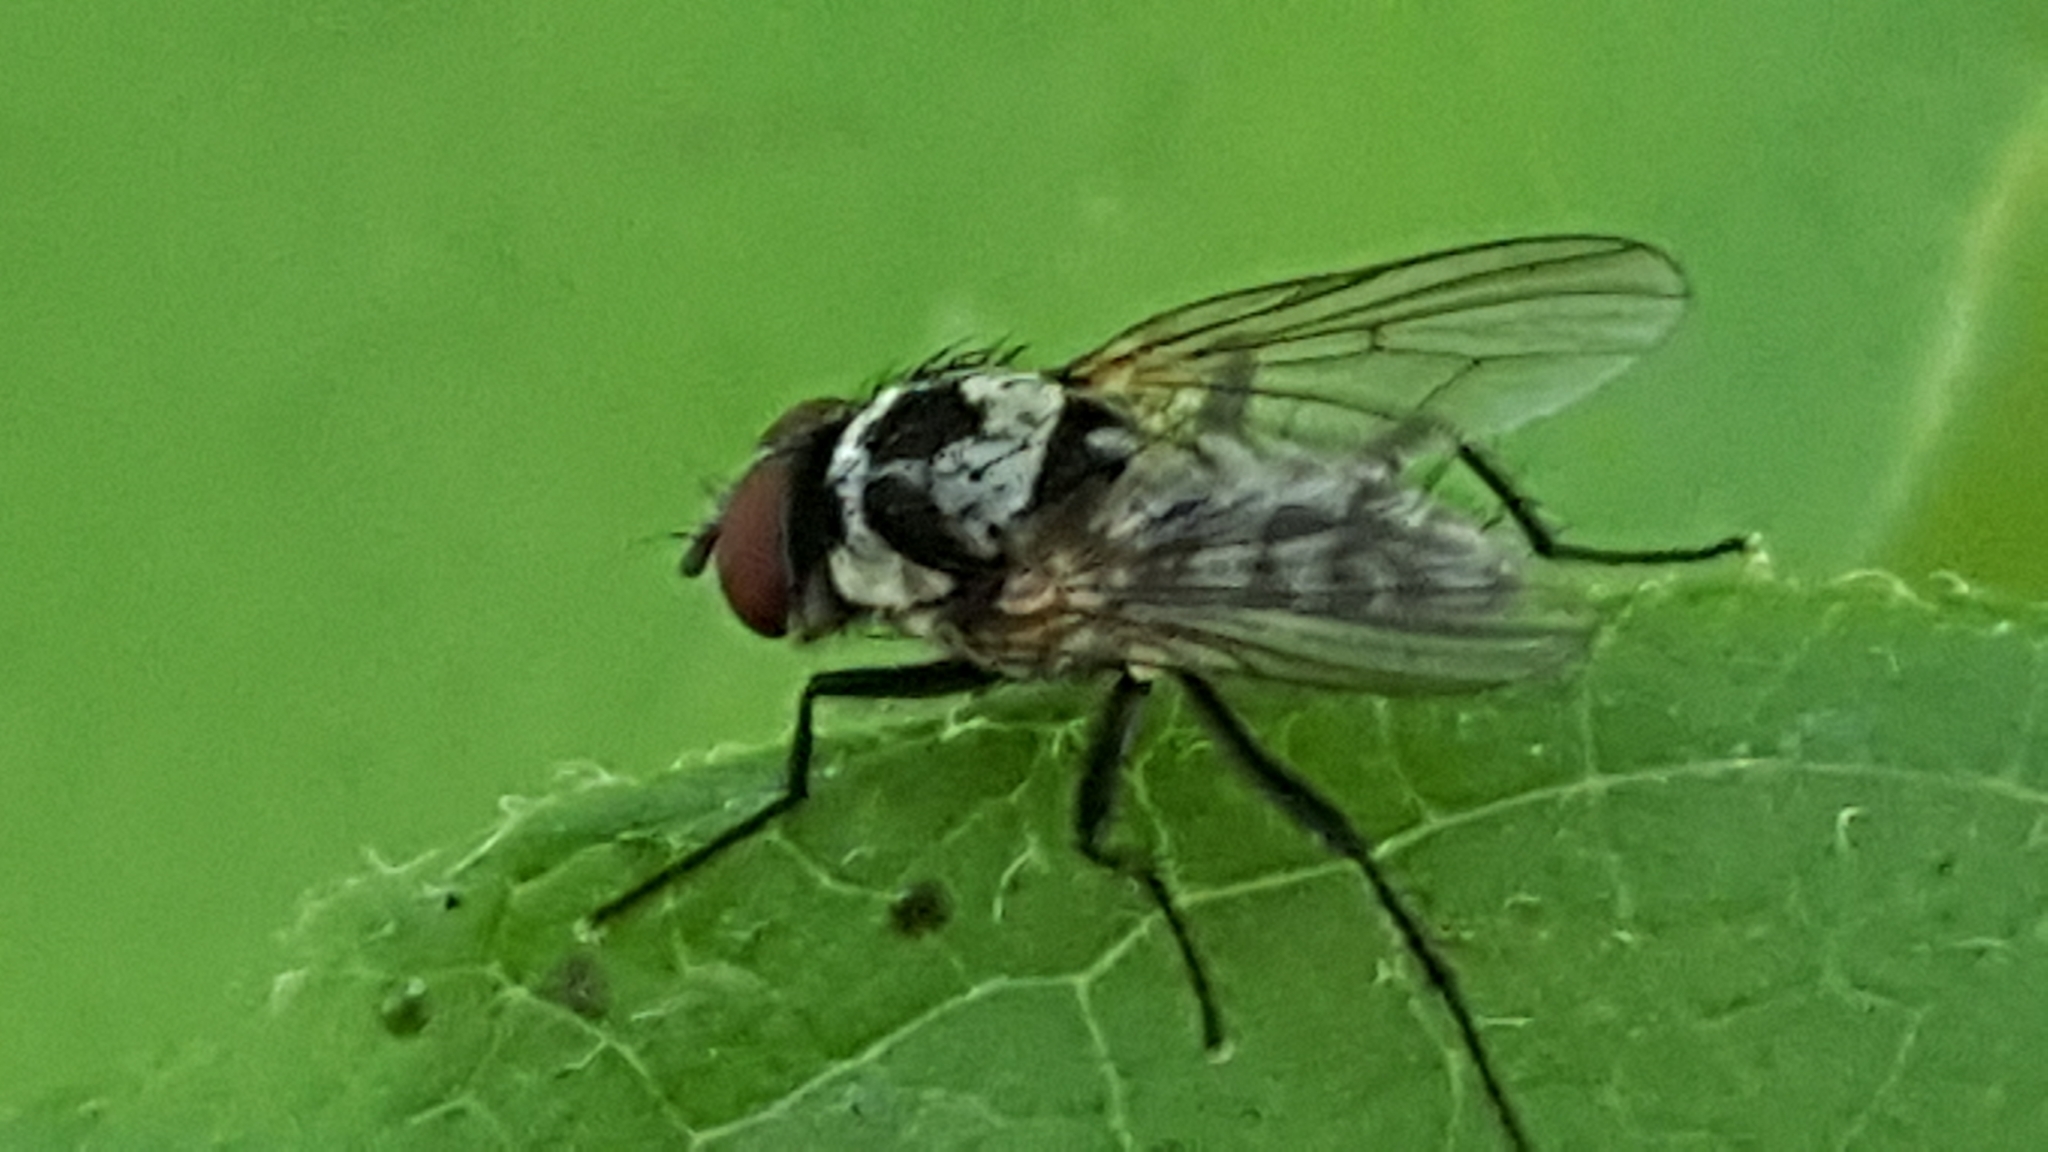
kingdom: Animalia
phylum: Arthropoda
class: Insecta
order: Diptera
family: Anthomyiidae
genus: Anthomyia
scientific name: Anthomyia procellaris
